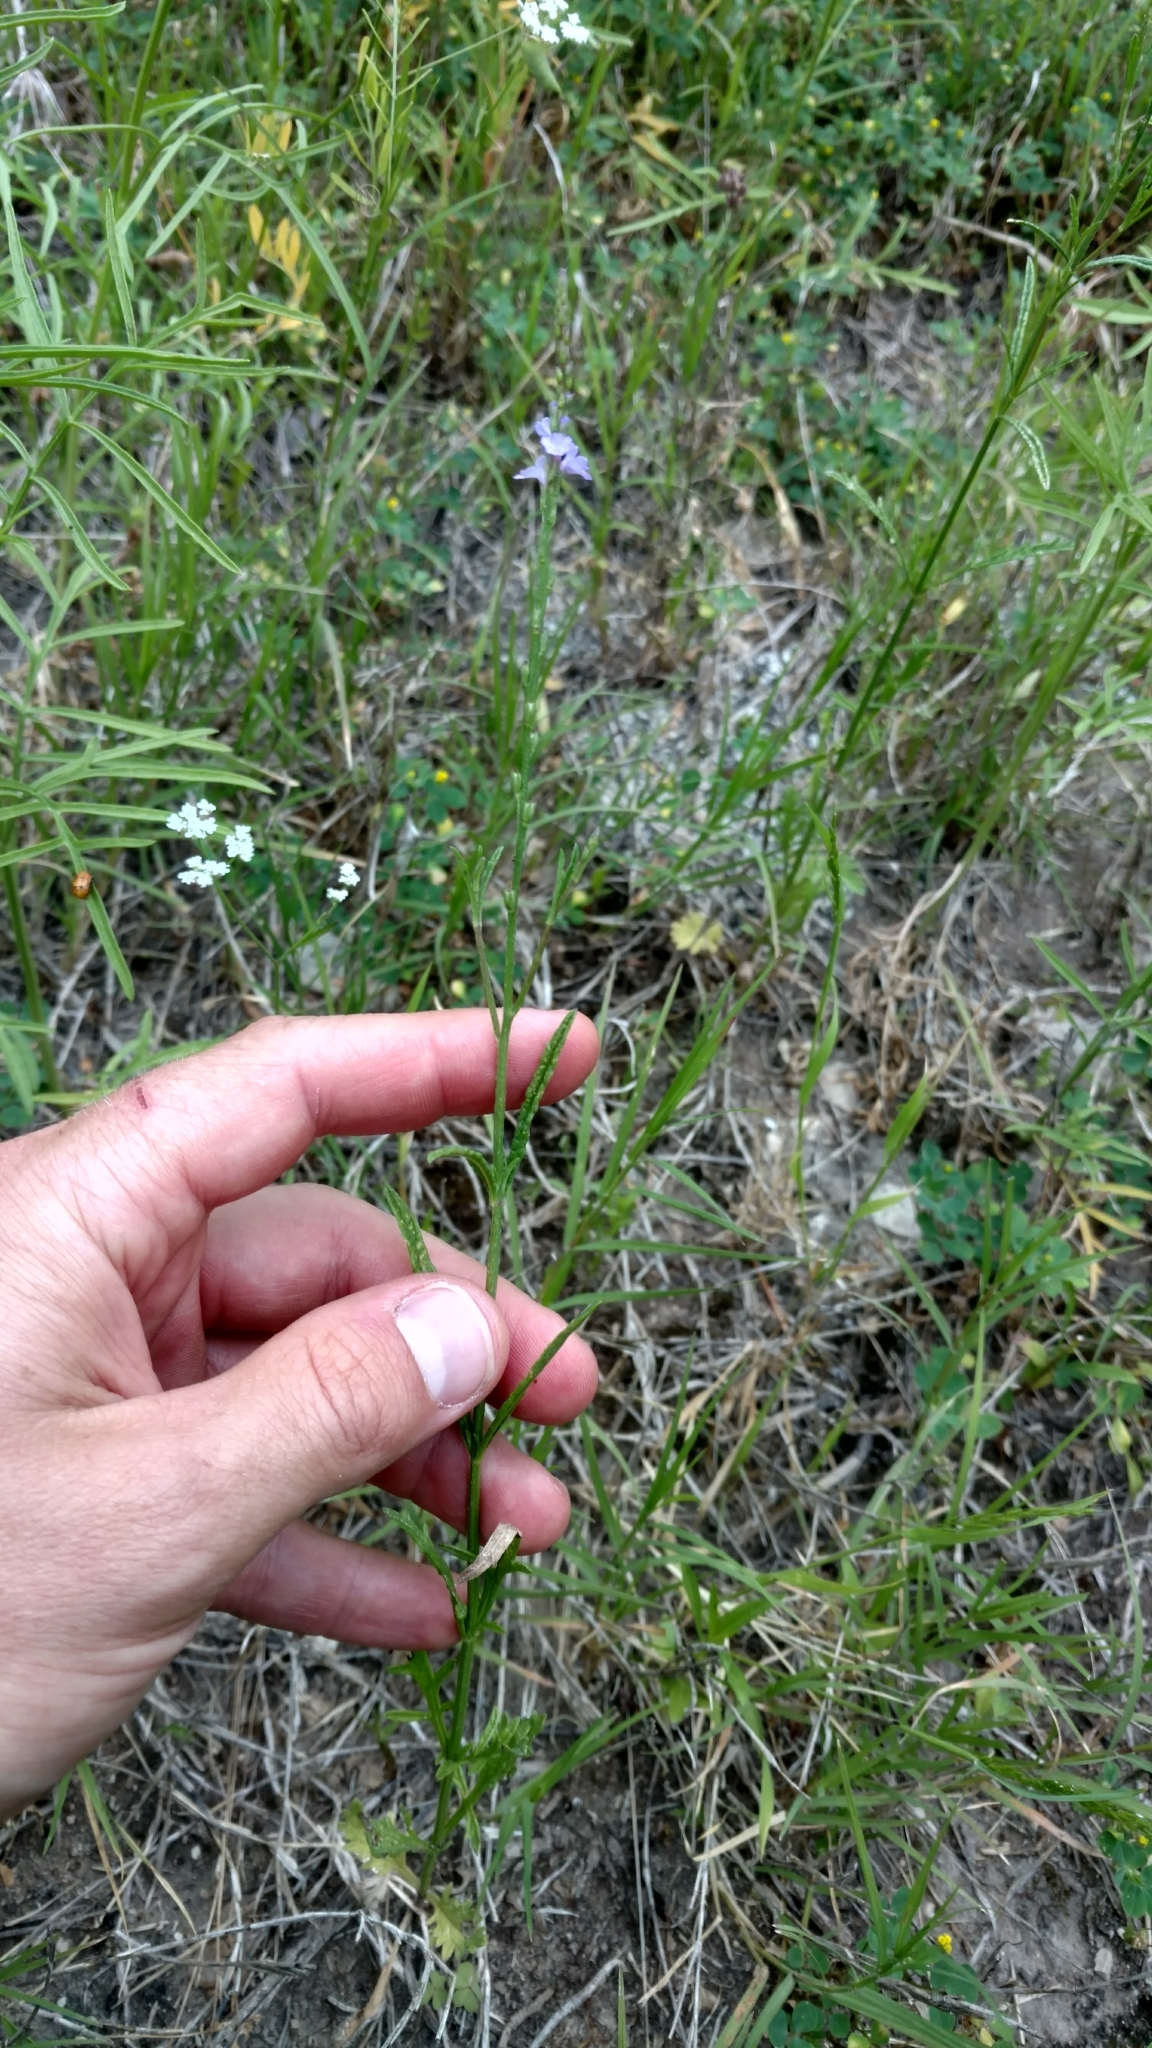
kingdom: Plantae
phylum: Tracheophyta
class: Magnoliopsida
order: Lamiales
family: Verbenaceae
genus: Verbena
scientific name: Verbena halei
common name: Texas vervain
